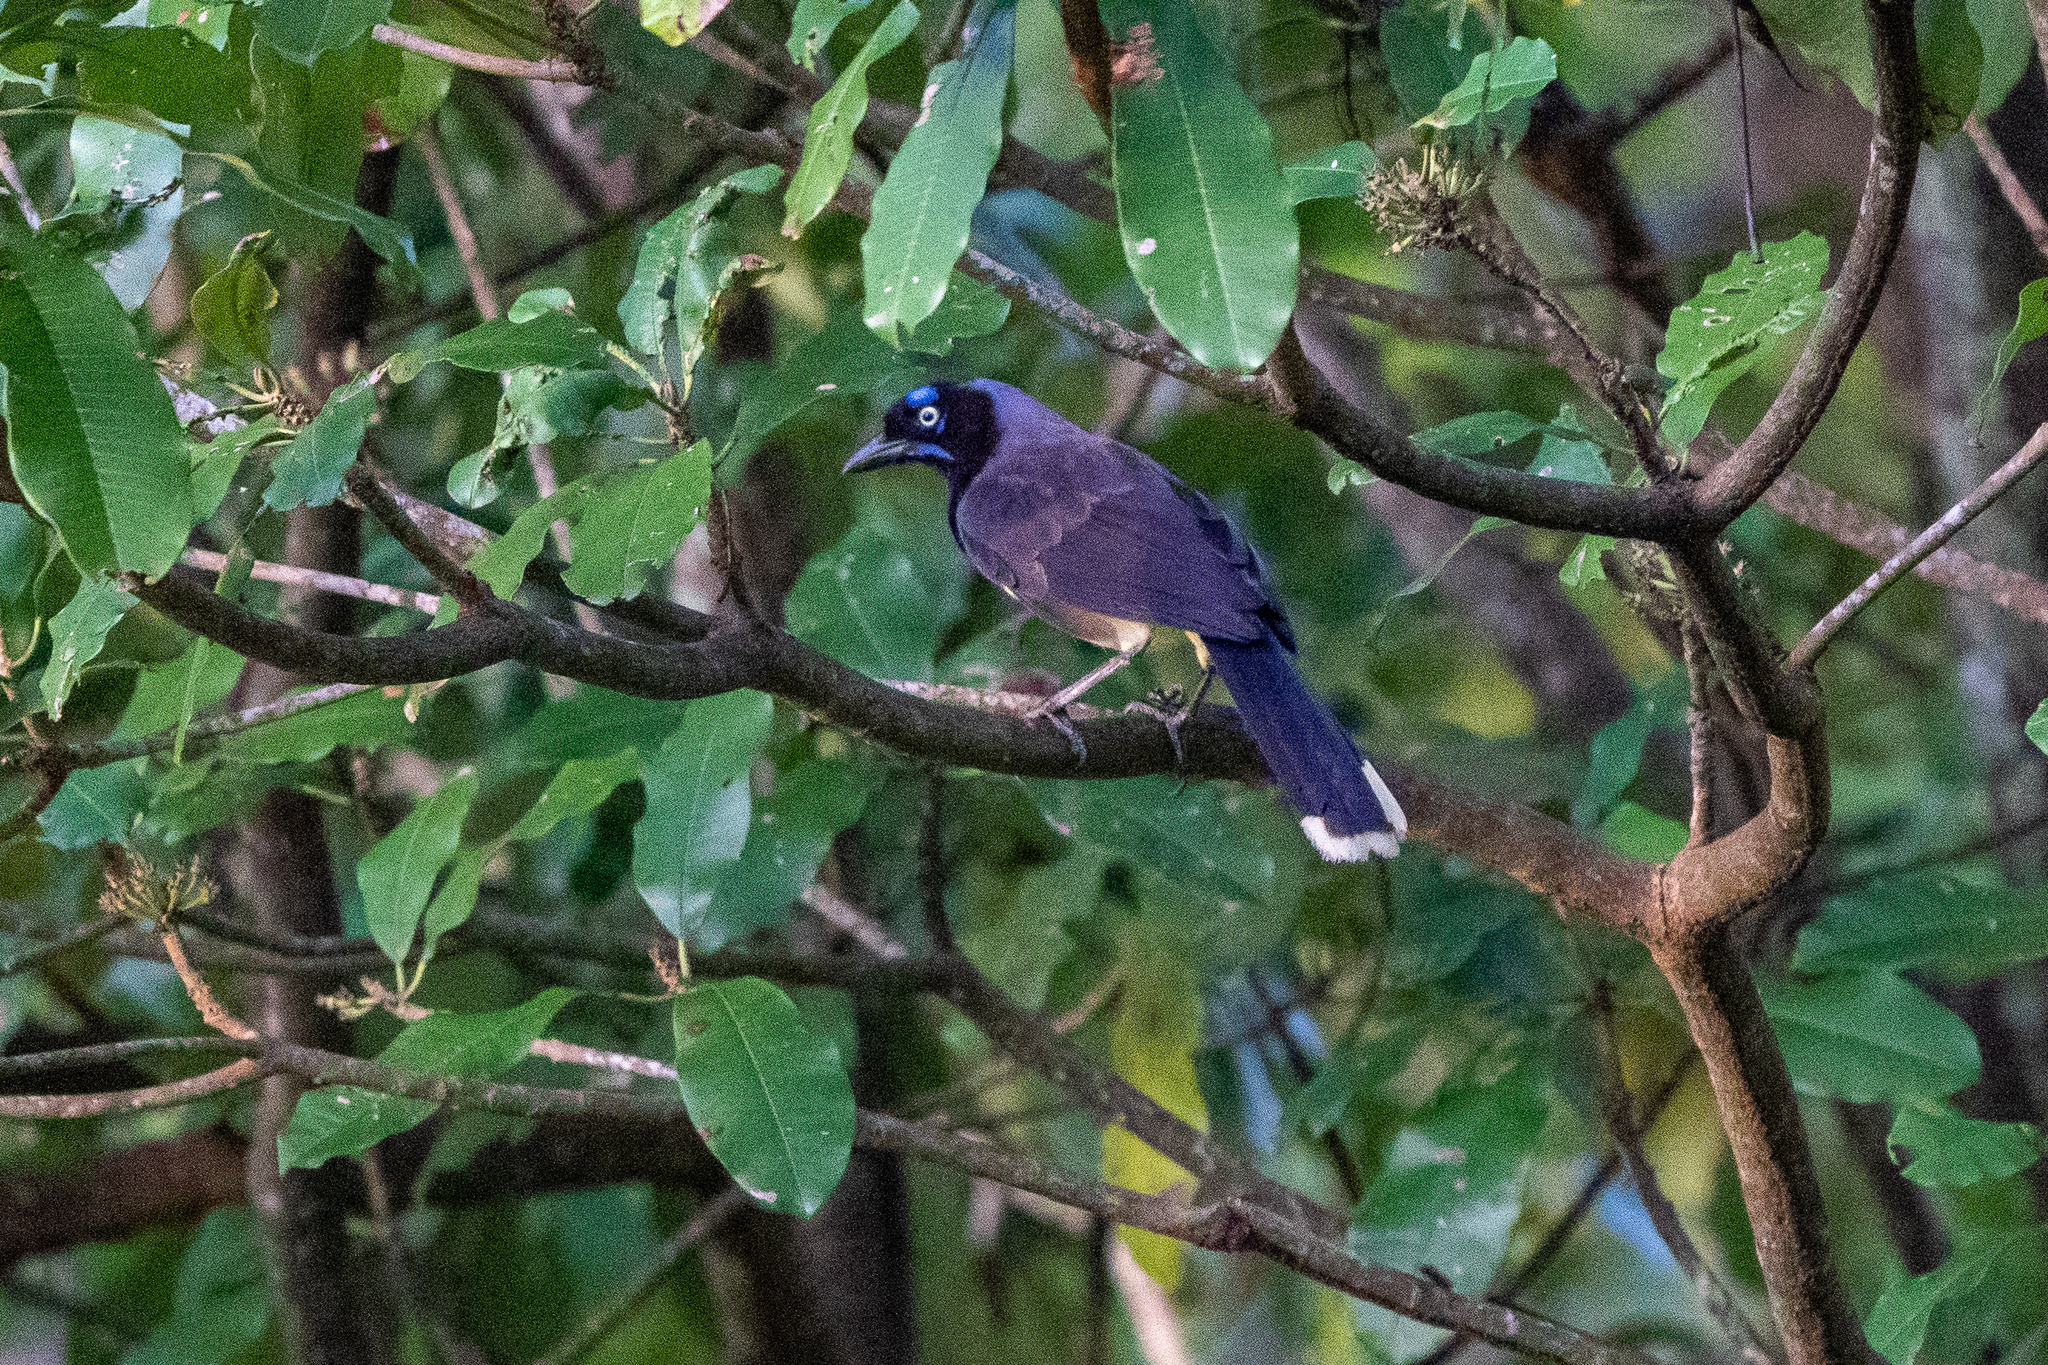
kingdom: Animalia
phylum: Chordata
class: Aves
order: Passeriformes
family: Corvidae
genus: Cyanocorax
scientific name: Cyanocorax affinis
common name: Black-chested jay
